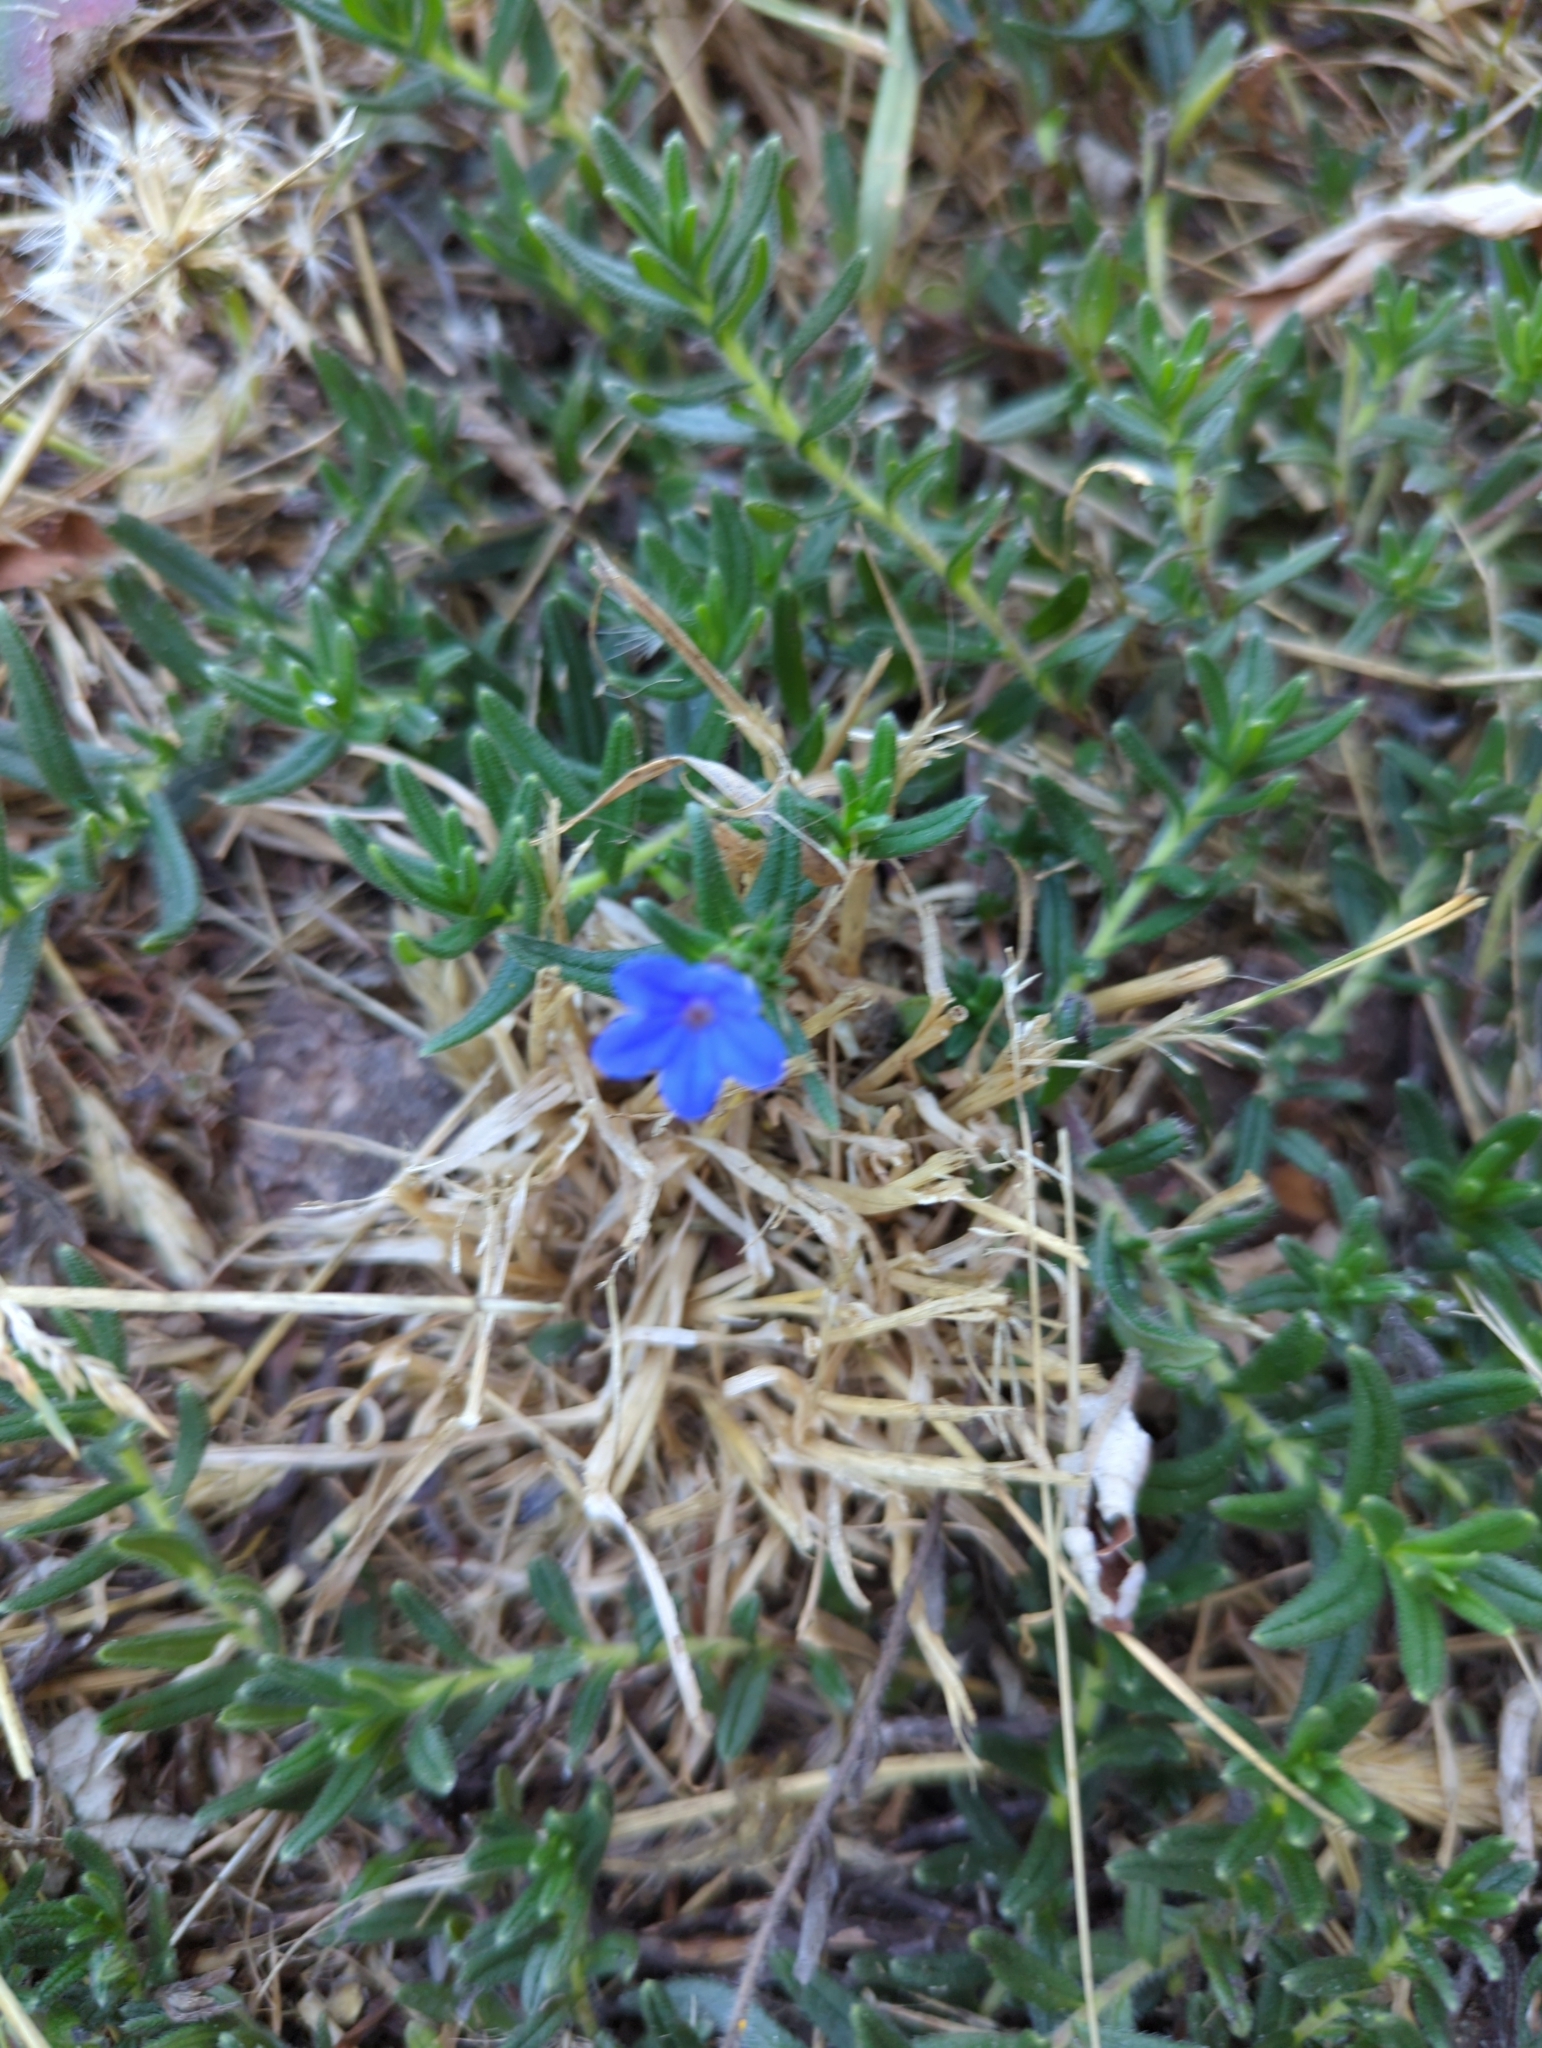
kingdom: Plantae
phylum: Tracheophyta
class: Magnoliopsida
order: Boraginales
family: Boraginaceae
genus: Glandora
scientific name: Glandora prostrata
